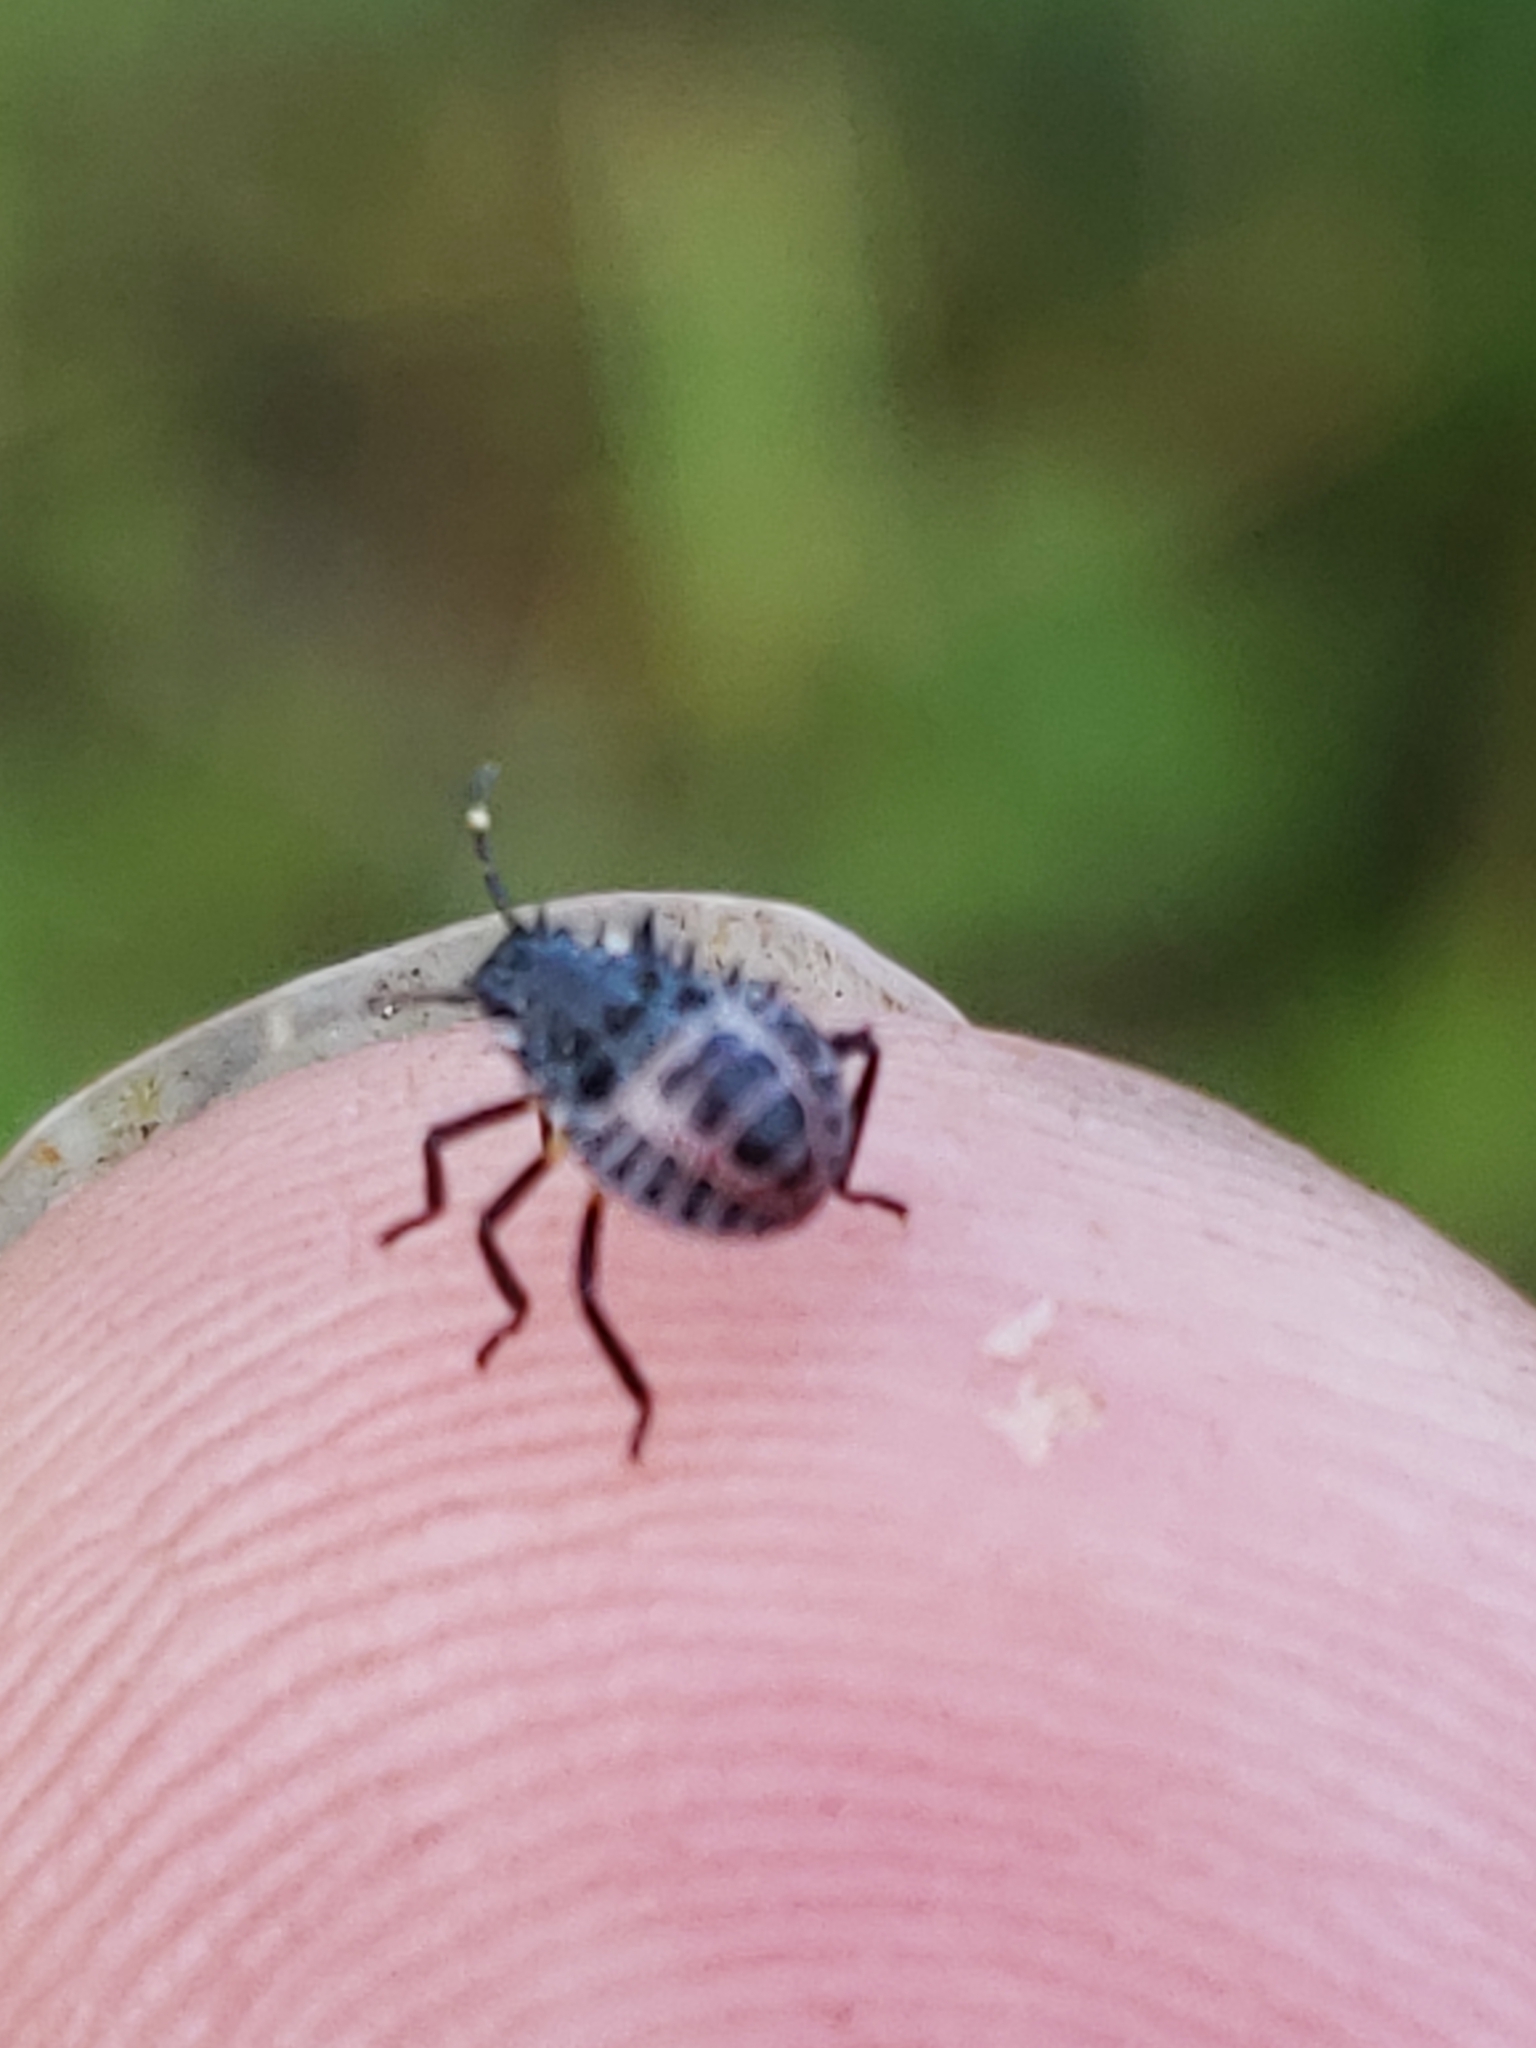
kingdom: Animalia
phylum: Arthropoda
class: Insecta
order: Hemiptera
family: Pentatomidae
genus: Halyomorpha
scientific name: Halyomorpha halys
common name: Brown marmorated stink bug
